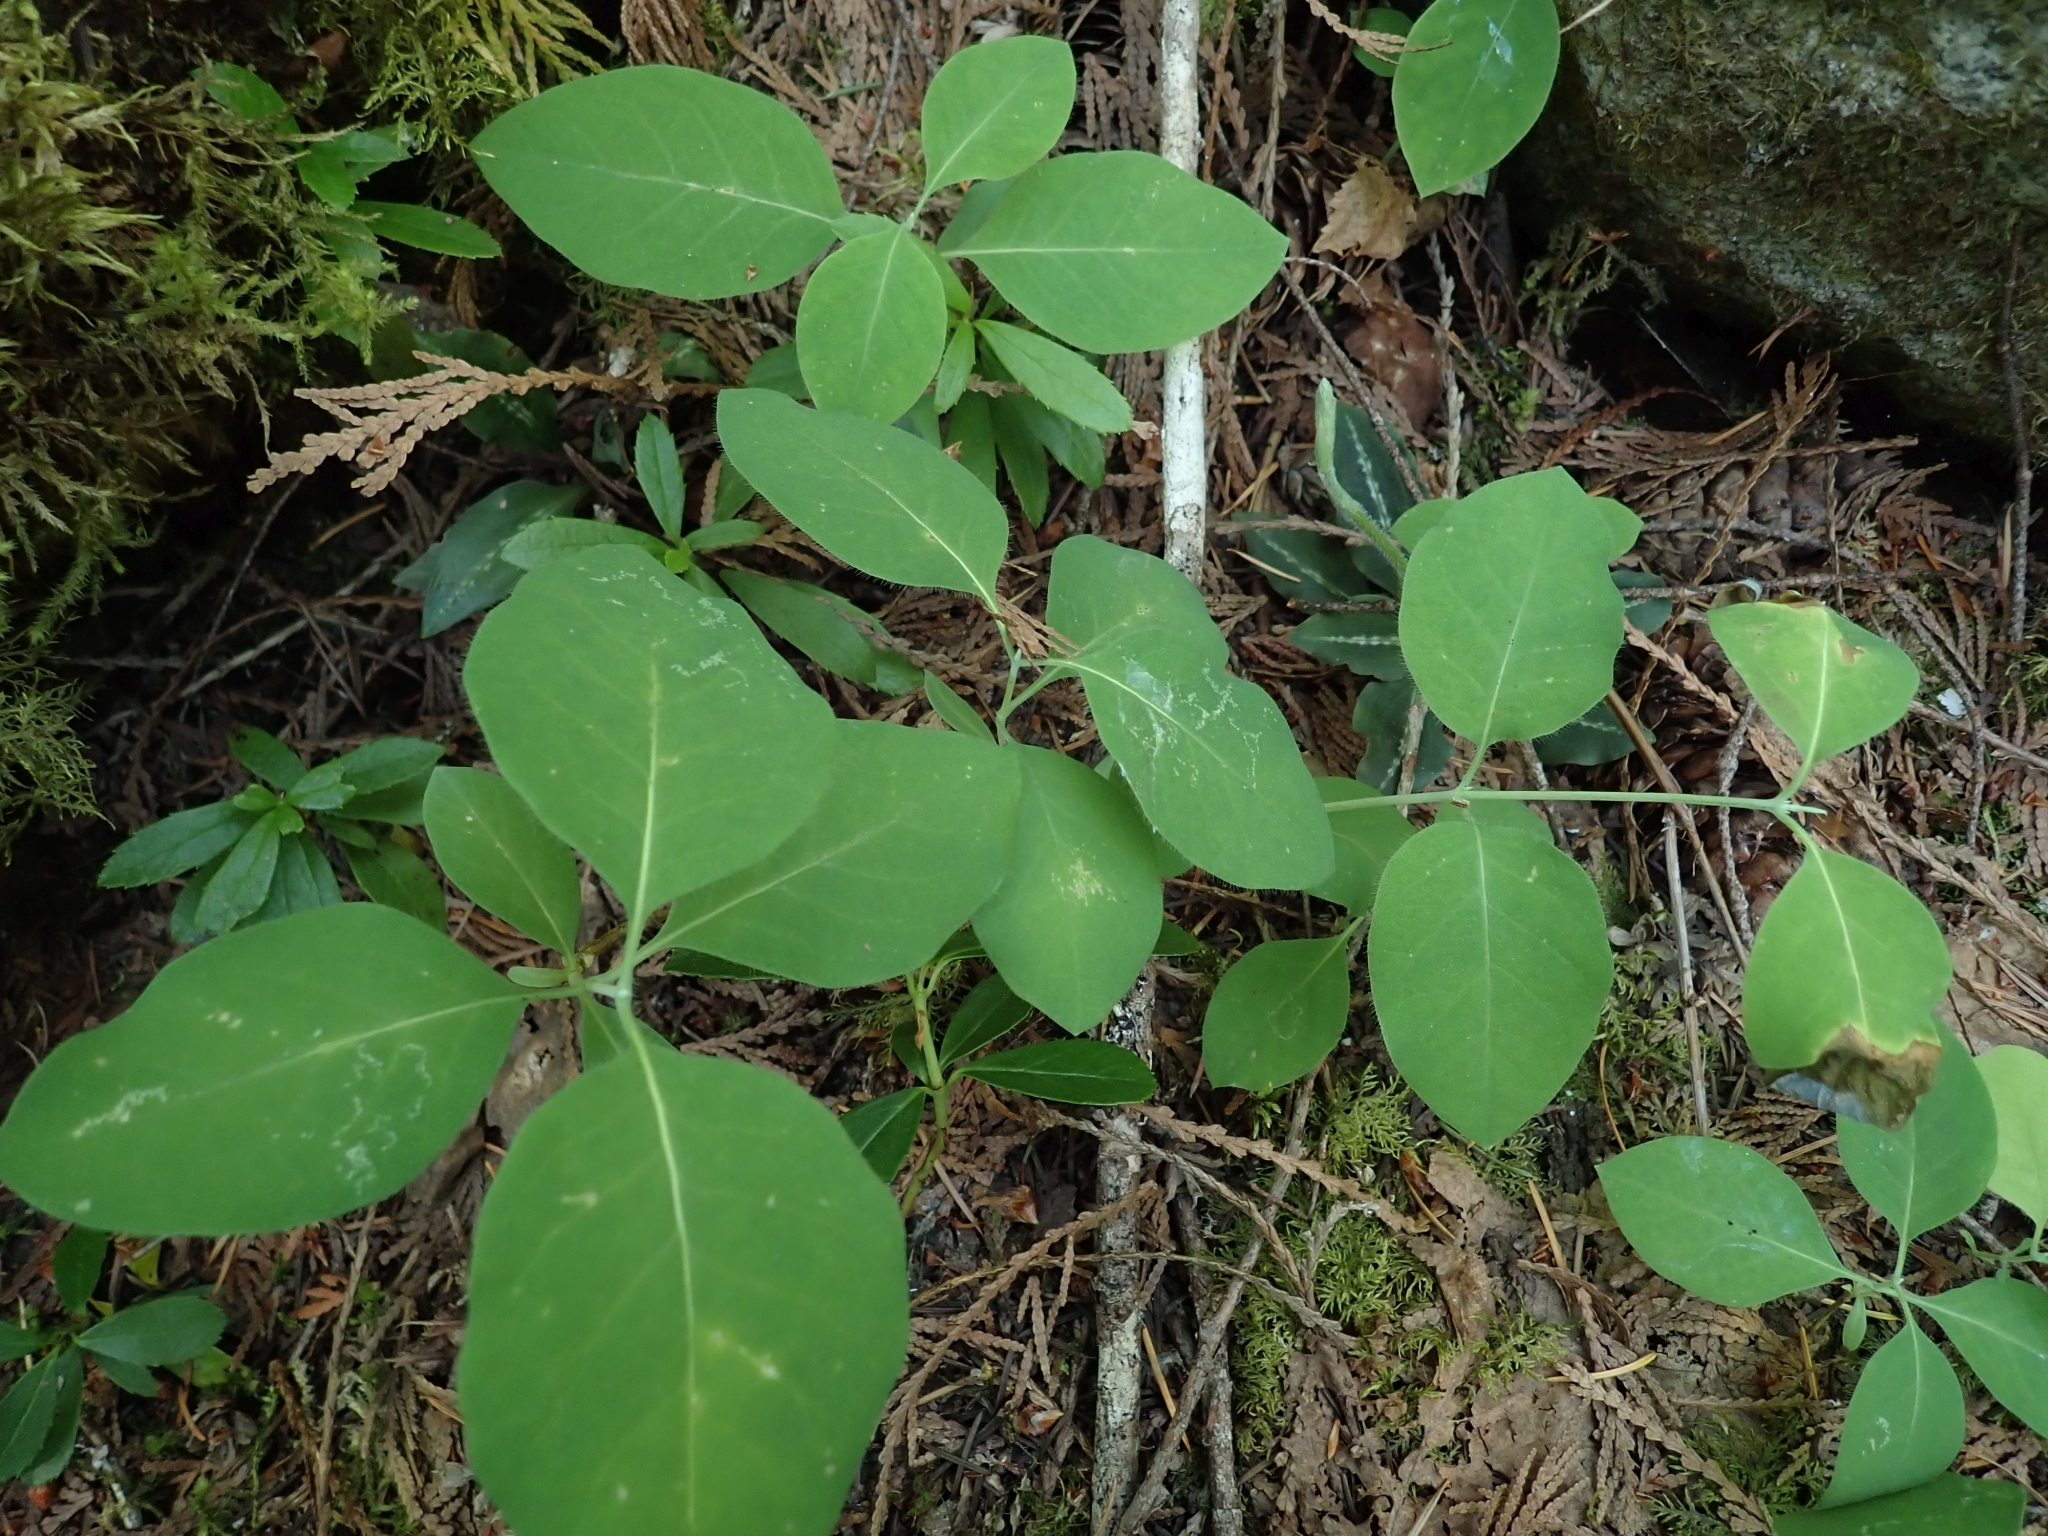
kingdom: Plantae
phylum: Tracheophyta
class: Magnoliopsida
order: Dipsacales
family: Caprifoliaceae
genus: Lonicera
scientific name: Lonicera ciliosa
